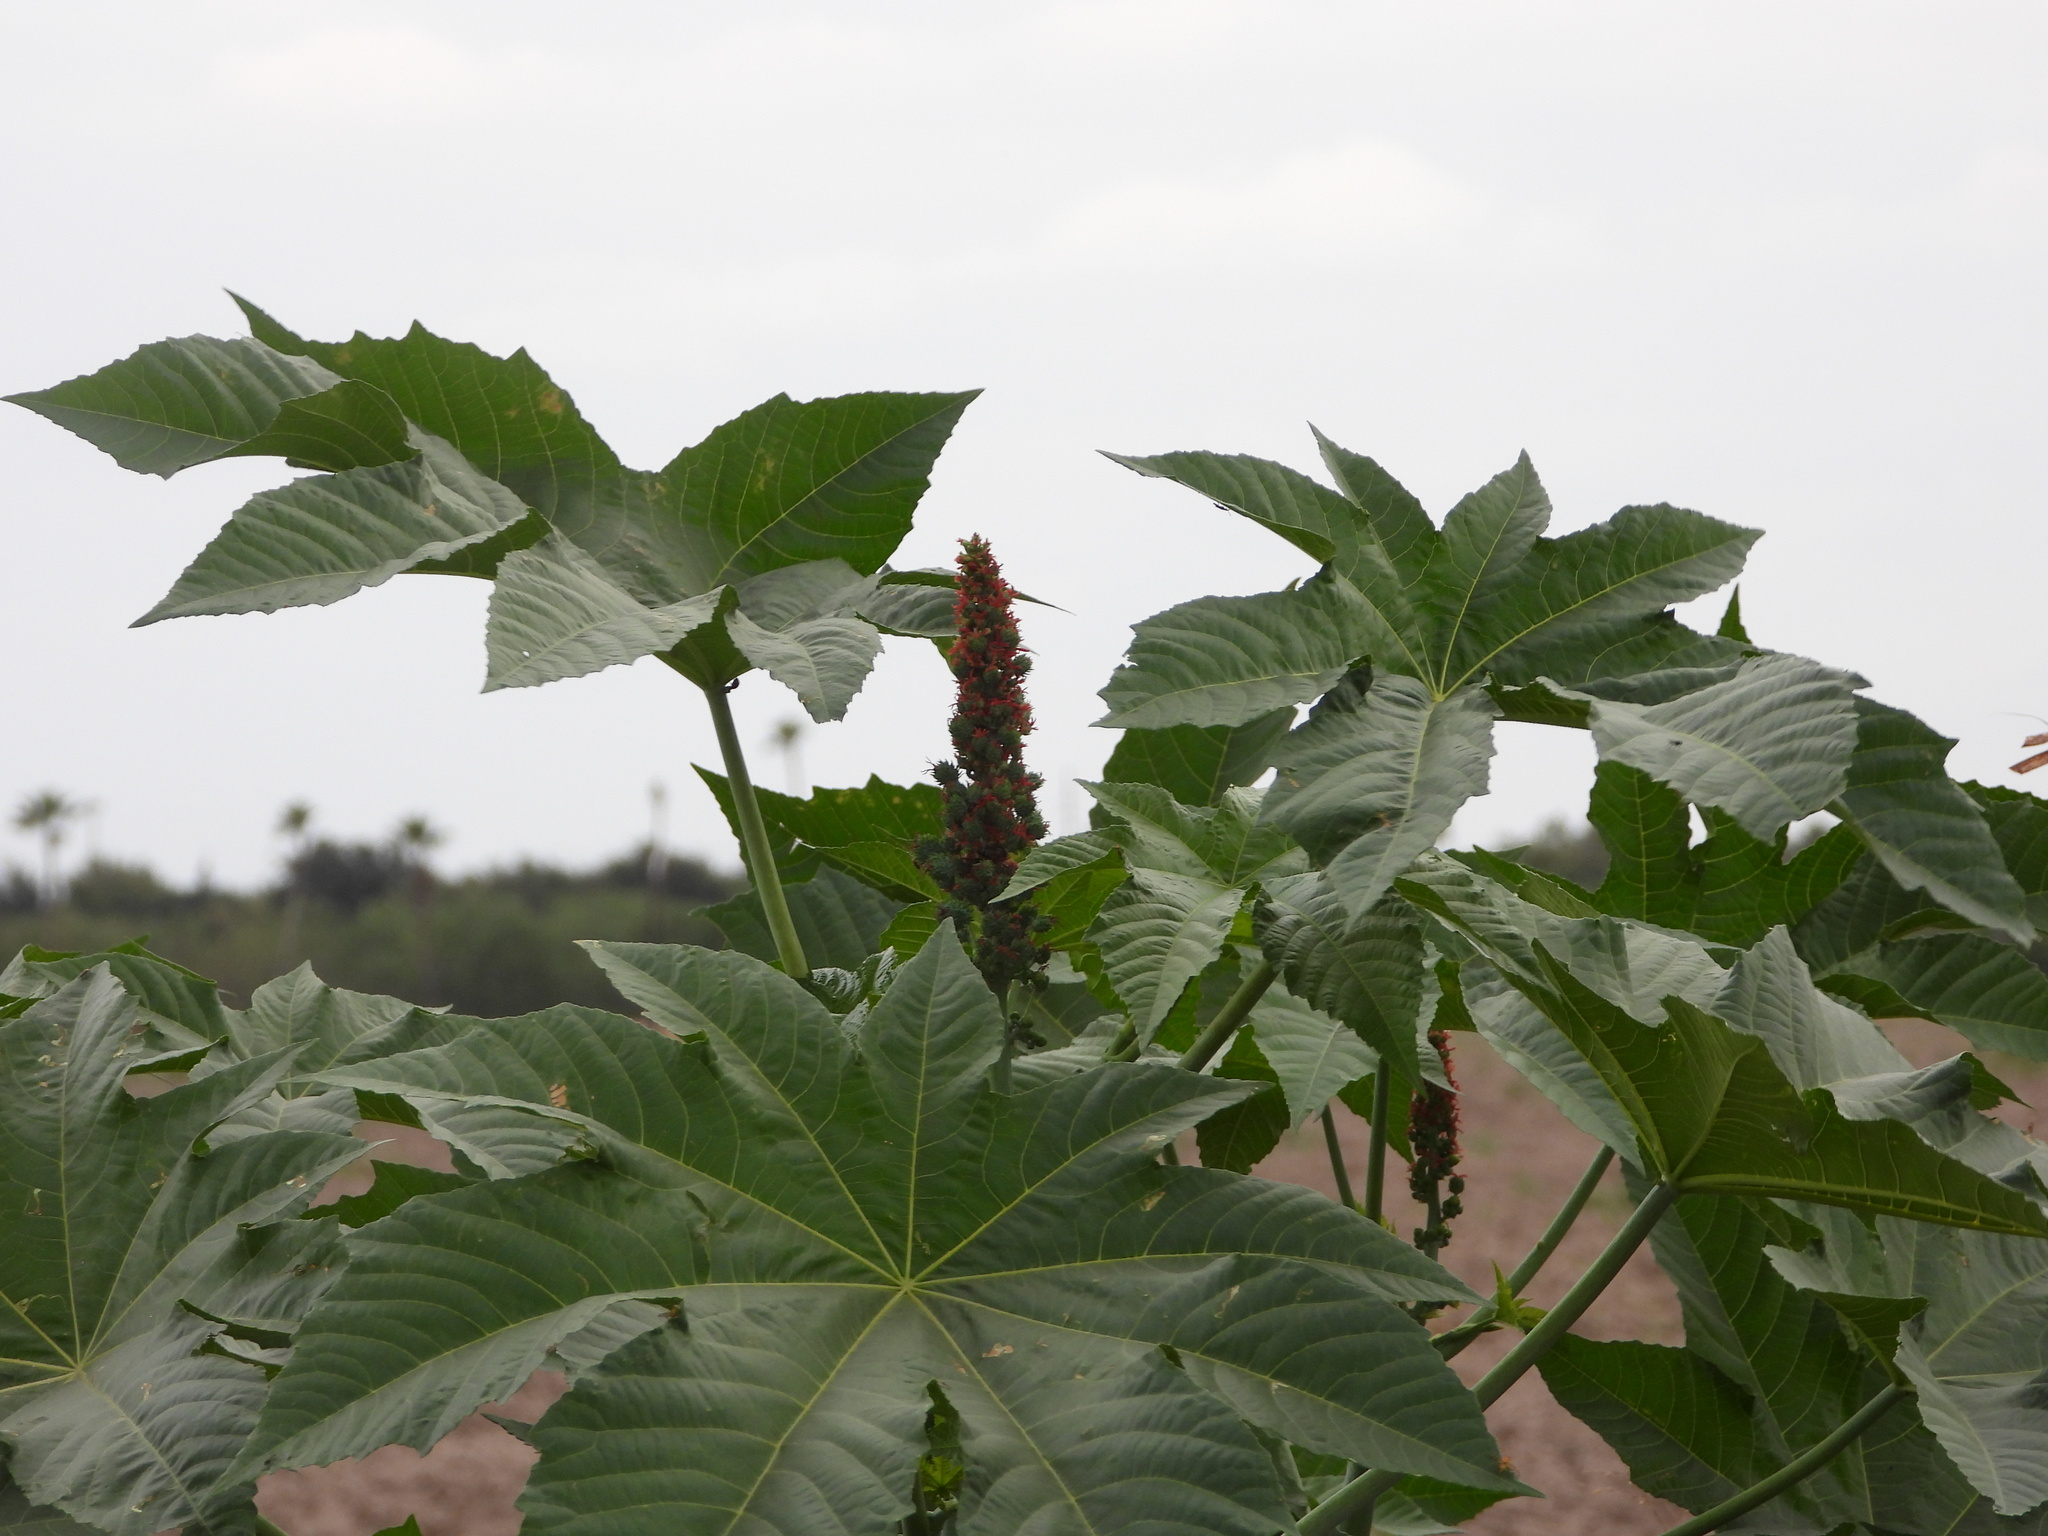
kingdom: Plantae
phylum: Tracheophyta
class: Magnoliopsida
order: Malpighiales
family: Euphorbiaceae
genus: Ricinus
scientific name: Ricinus communis
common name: Castor-oil-plant
